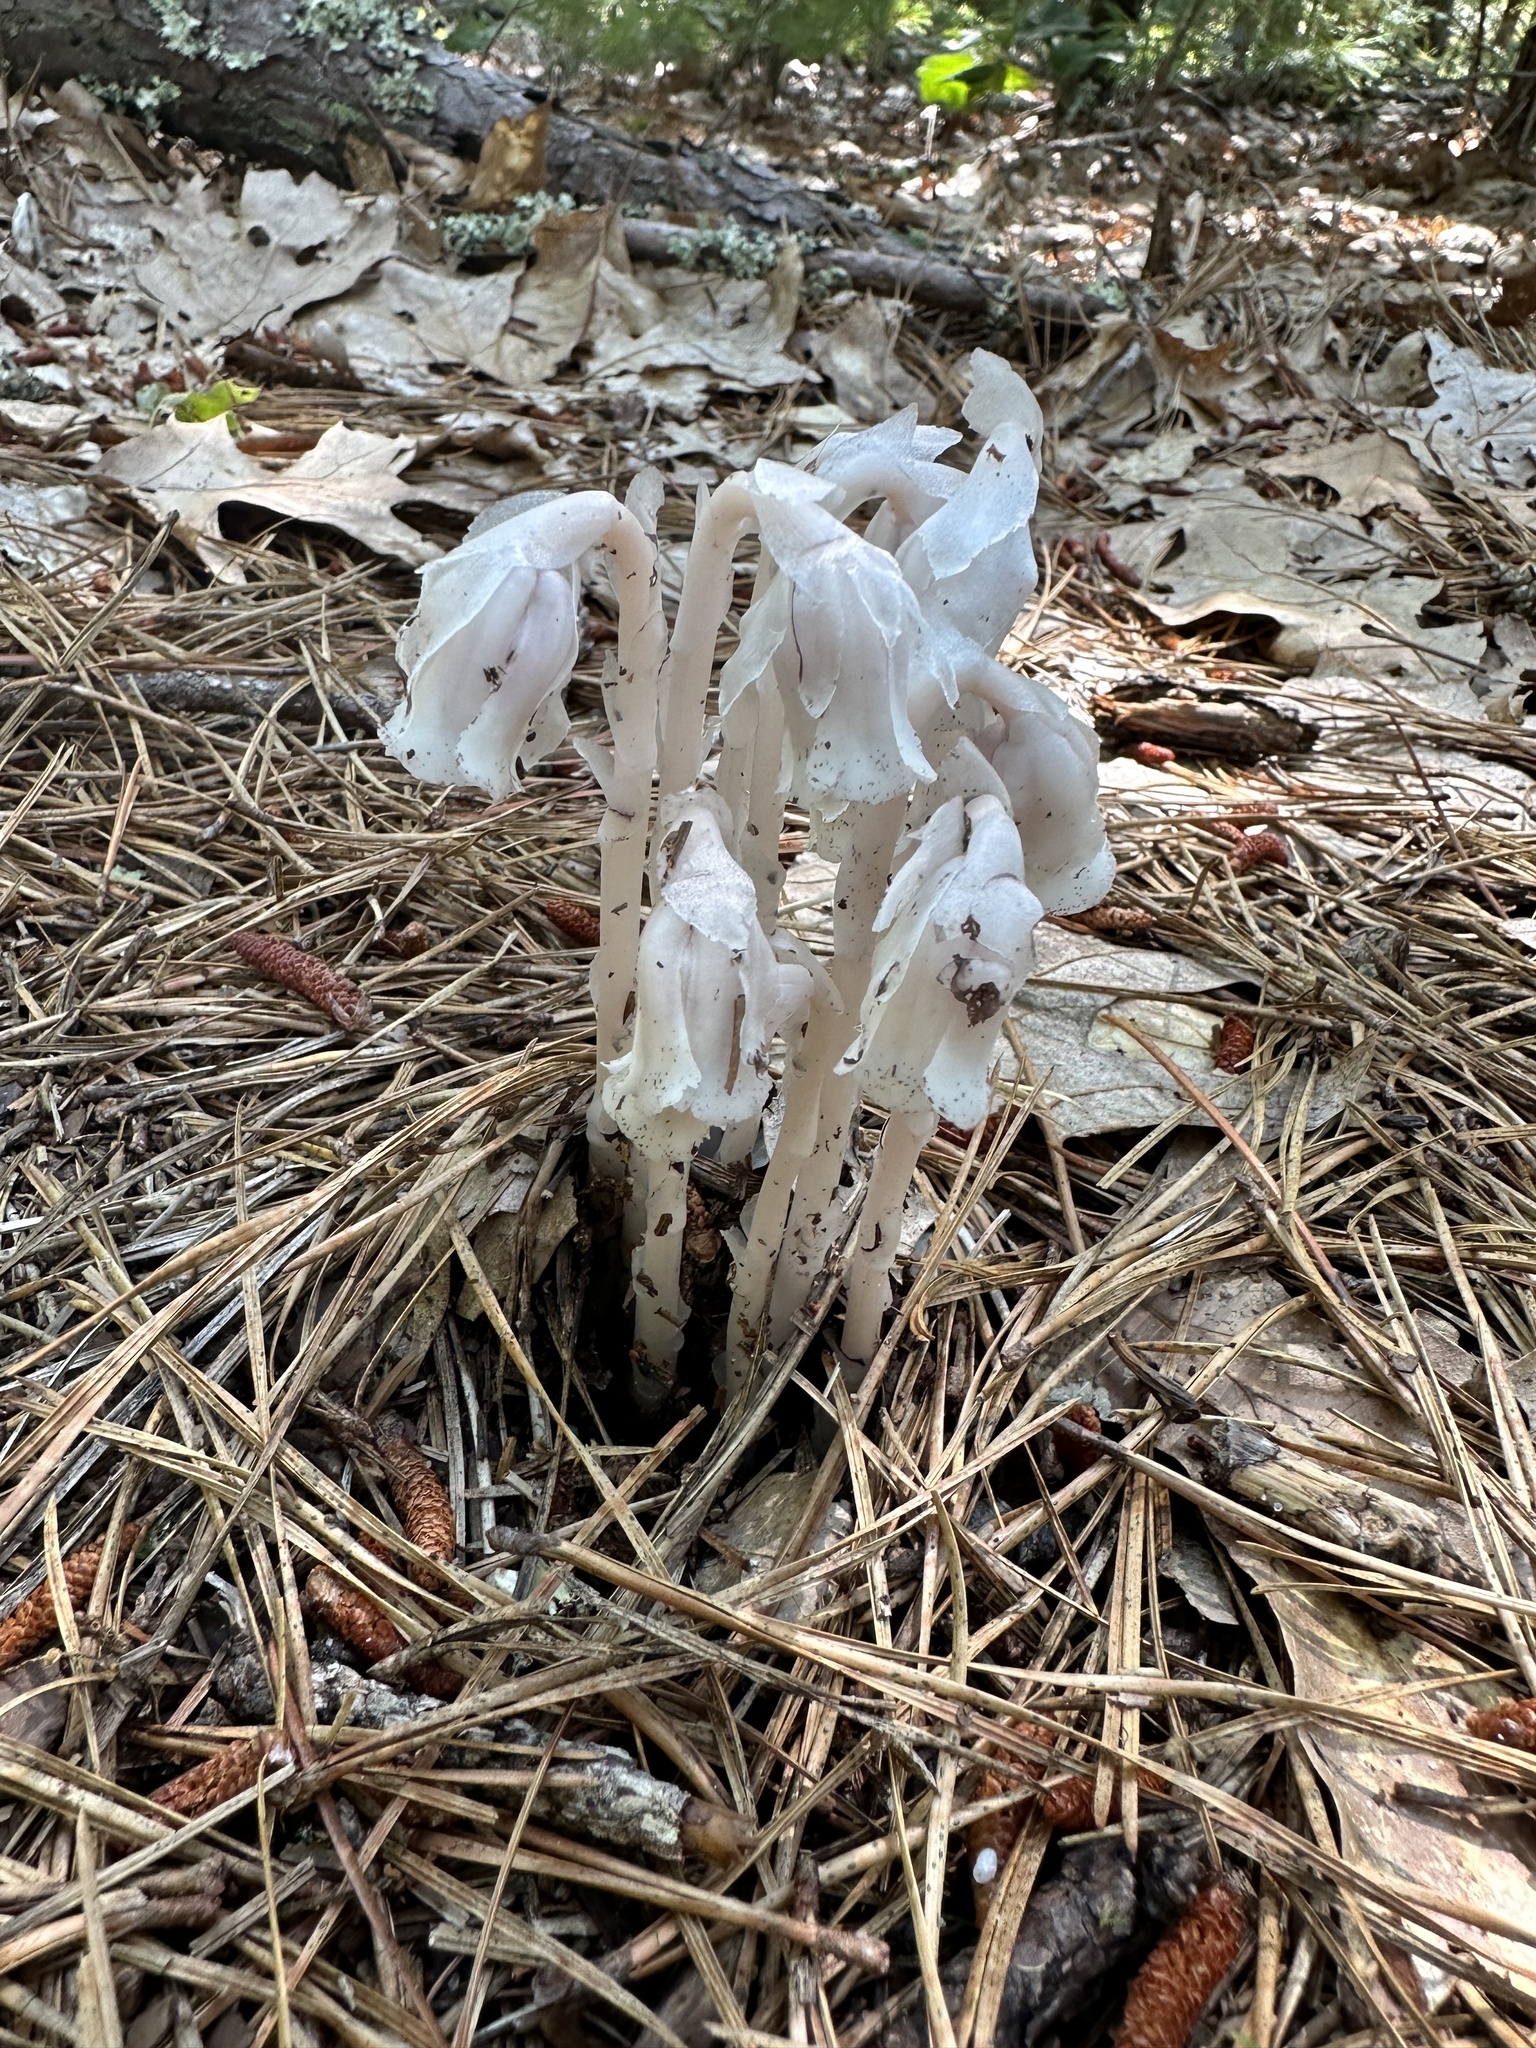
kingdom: Plantae
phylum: Tracheophyta
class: Magnoliopsida
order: Ericales
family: Ericaceae
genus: Monotropa
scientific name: Monotropa uniflora
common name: Convulsion root
